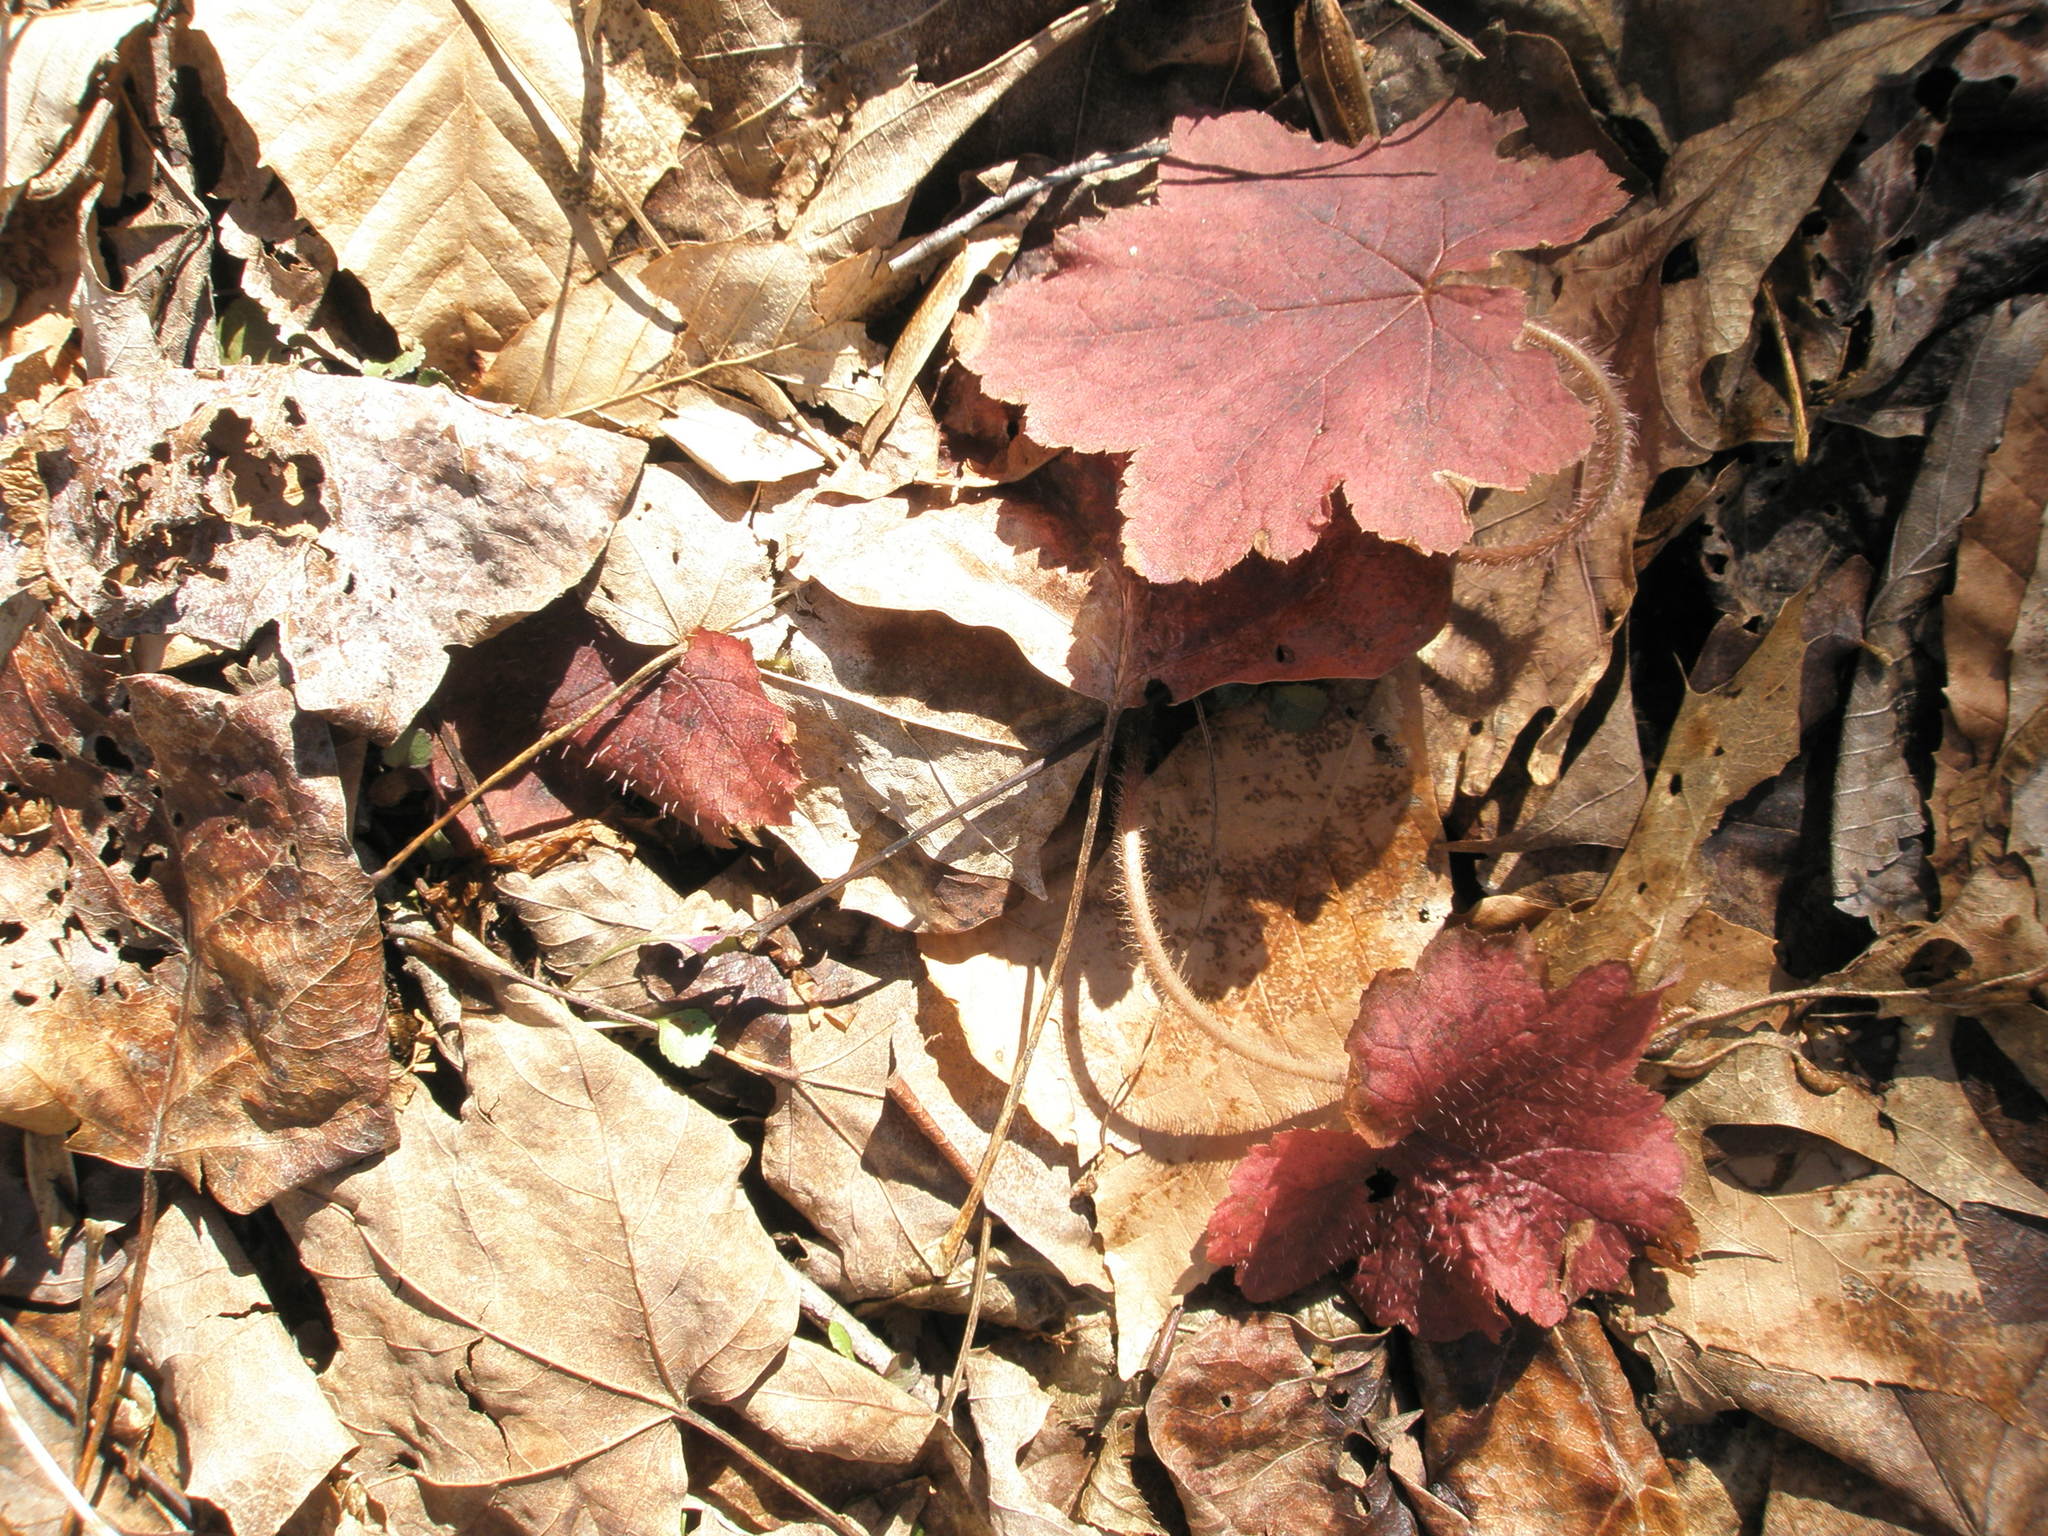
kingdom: Plantae
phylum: Tracheophyta
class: Magnoliopsida
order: Saxifragales
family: Saxifragaceae
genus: Tiarella
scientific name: Tiarella stolonifera
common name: Stoloniferous foamflower
